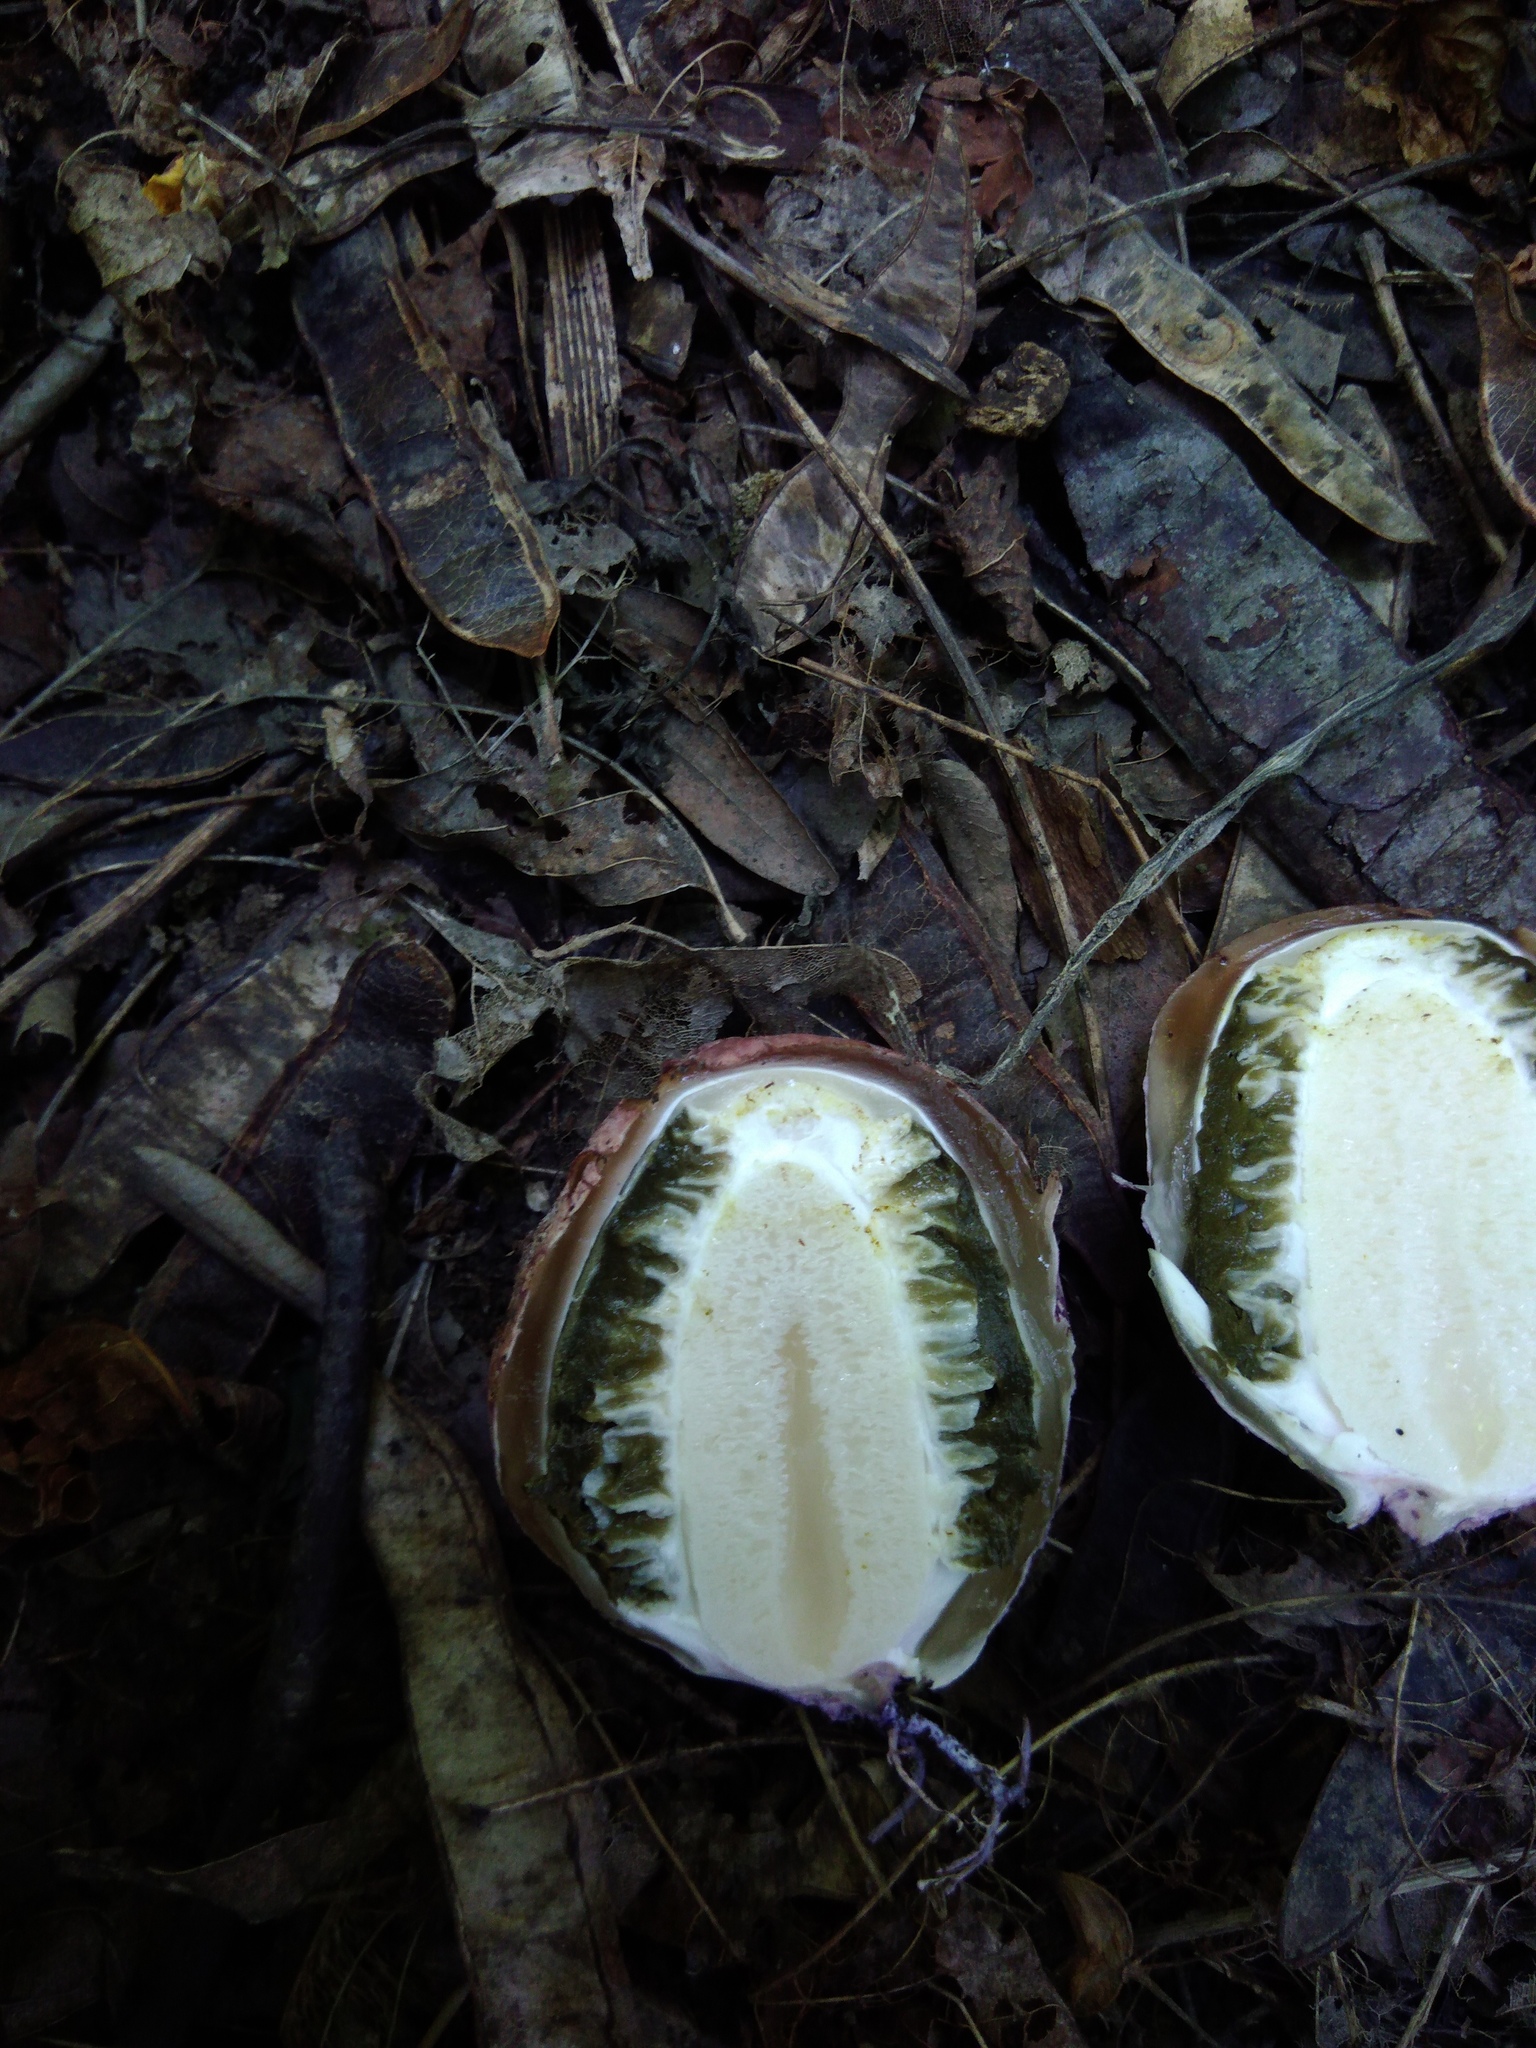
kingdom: Fungi
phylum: Basidiomycota
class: Agaricomycetes
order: Phallales
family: Phallaceae
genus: Phallus
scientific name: Phallus hadriani
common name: Sand stinkhorn
